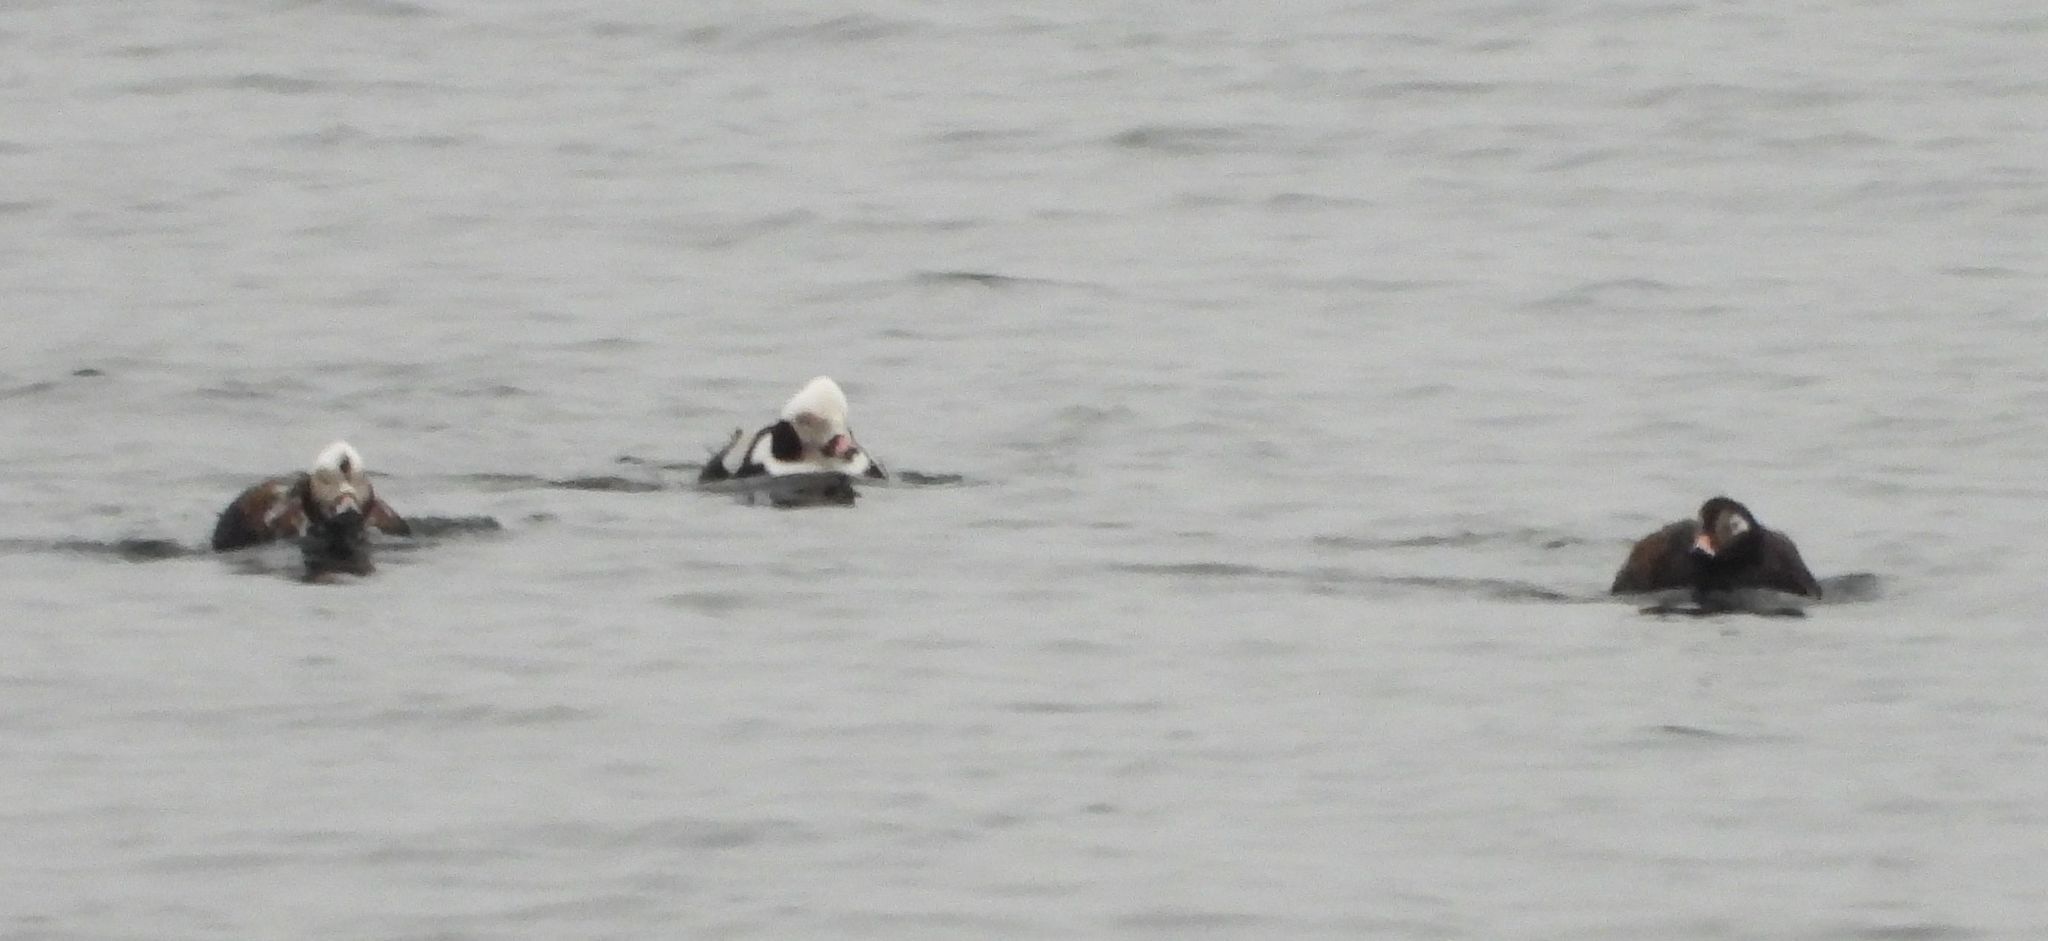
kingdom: Animalia
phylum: Chordata
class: Aves
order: Anseriformes
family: Anatidae
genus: Clangula
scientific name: Clangula hyemalis
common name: Long-tailed duck
